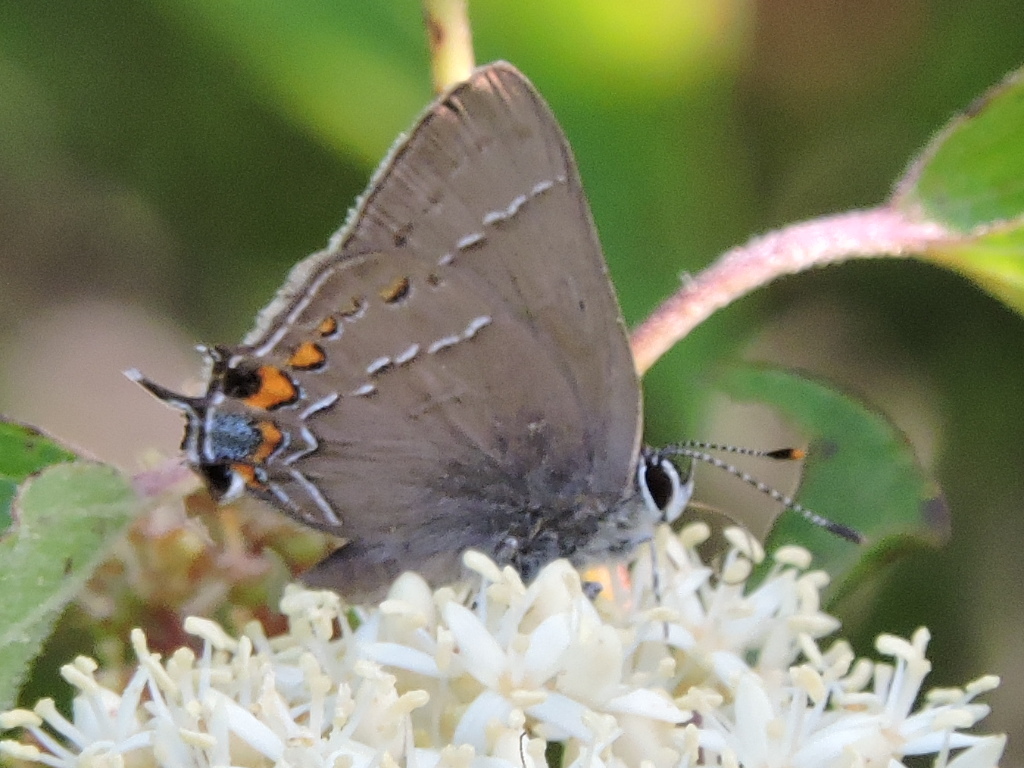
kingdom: Animalia
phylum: Arthropoda
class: Insecta
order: Lepidoptera
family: Lycaenidae
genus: Fixsenia
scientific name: Fixsenia favonius
